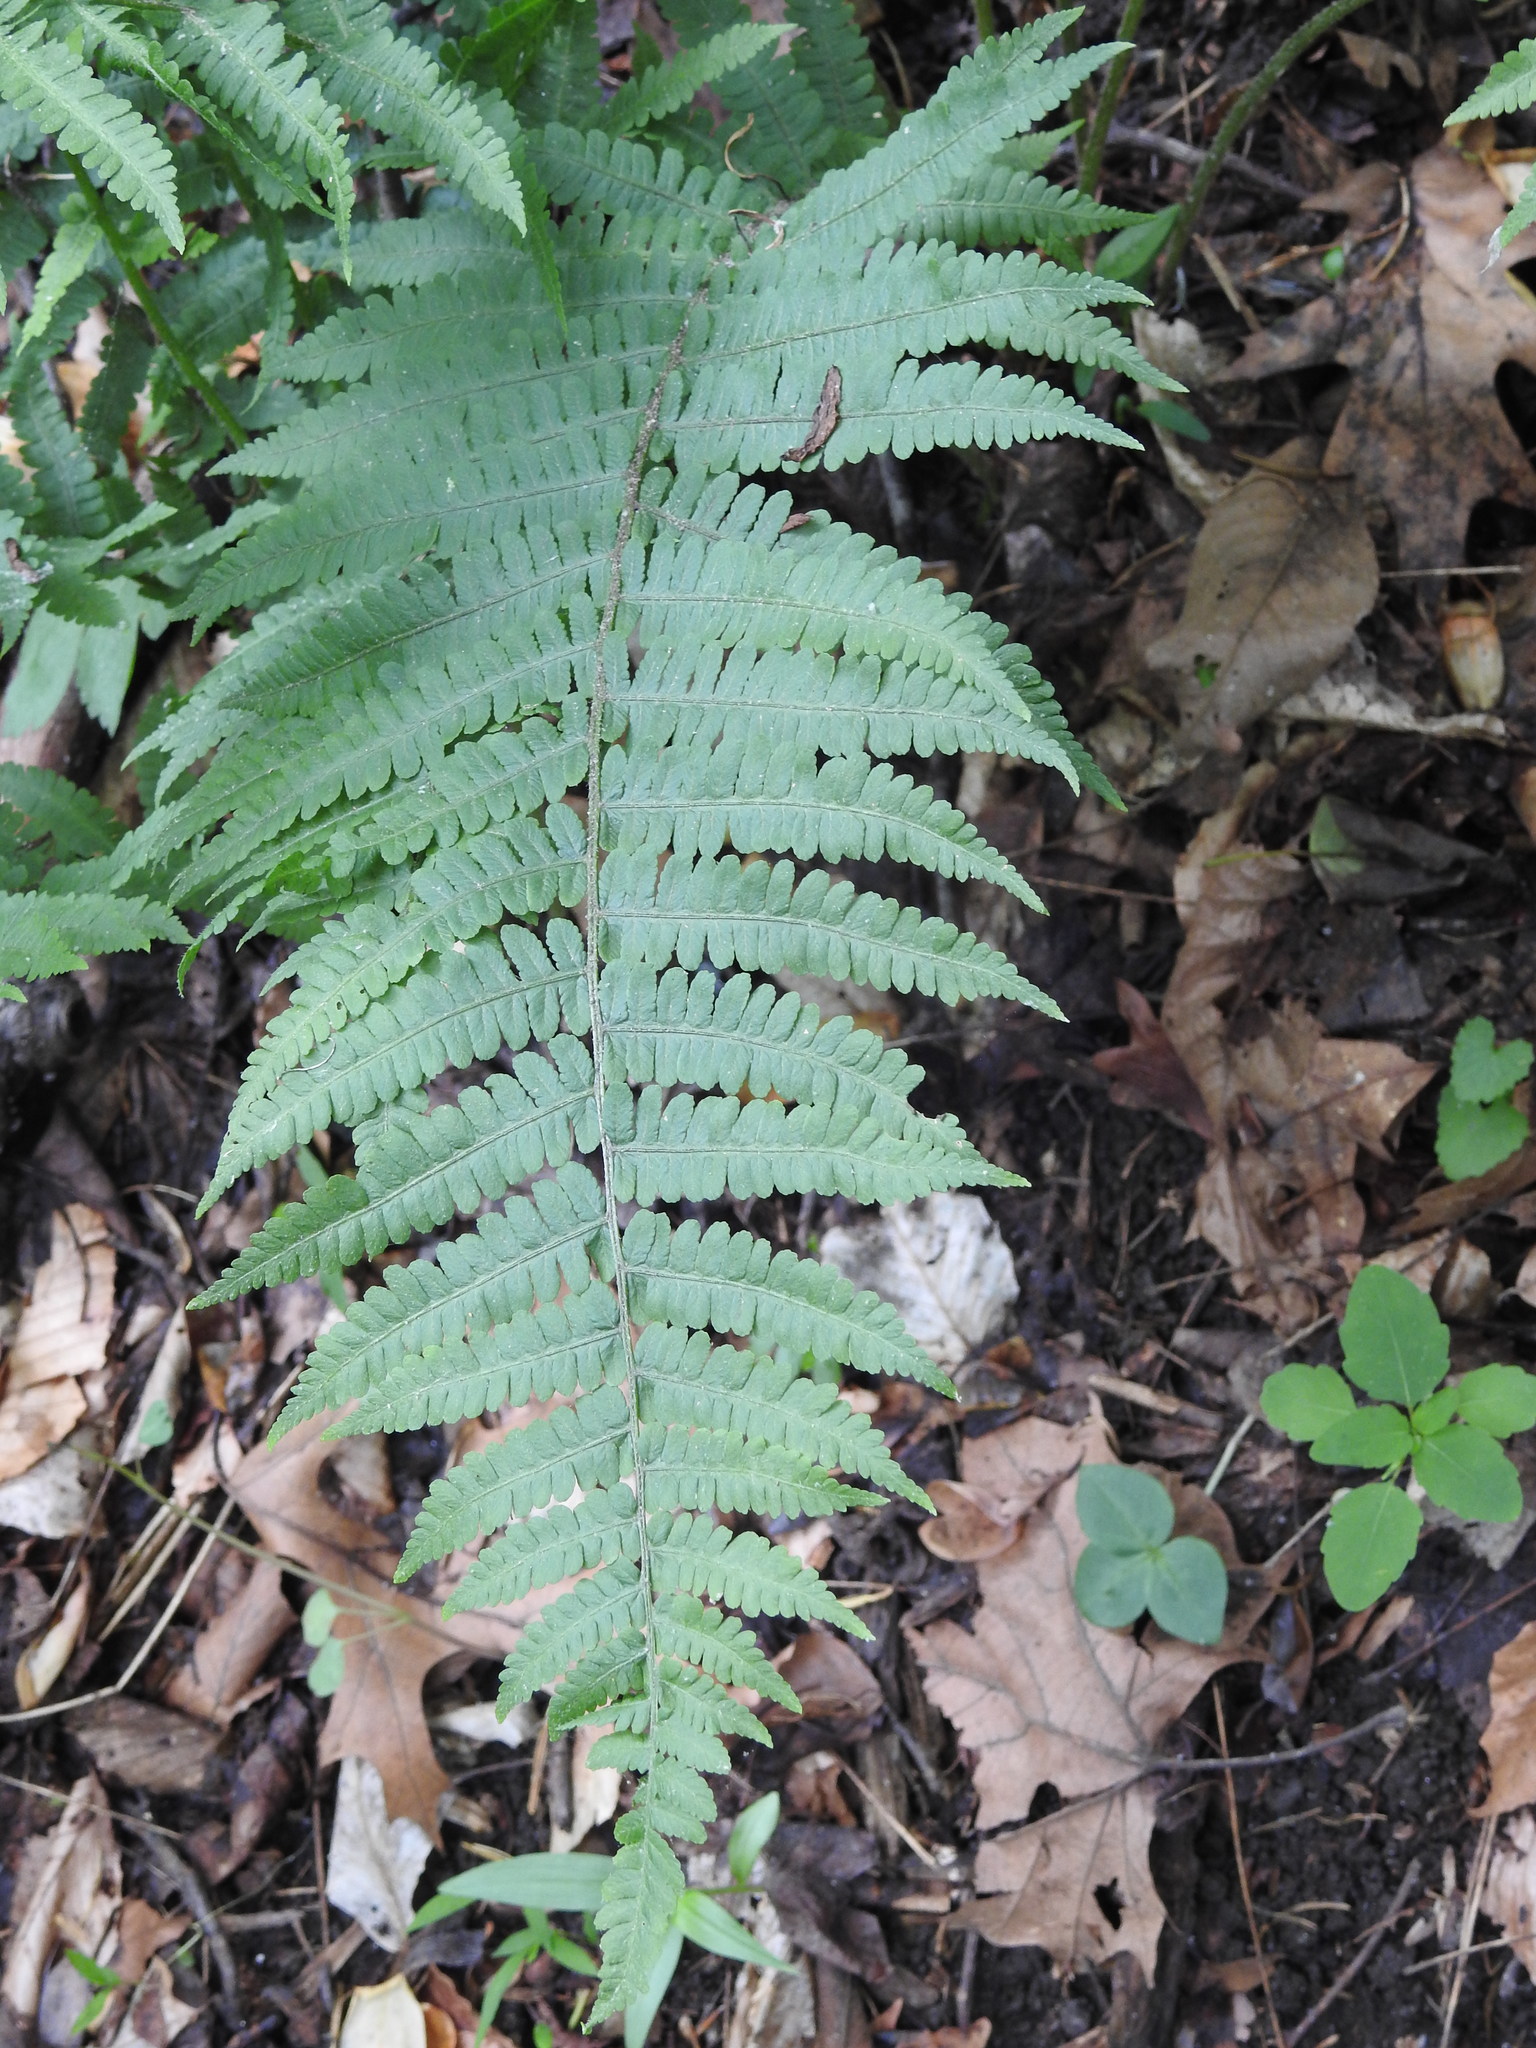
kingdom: Plantae
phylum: Tracheophyta
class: Polypodiopsida
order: Polypodiales
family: Athyriaceae
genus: Deparia
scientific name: Deparia acrostichoides
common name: Silver false spleenwort
